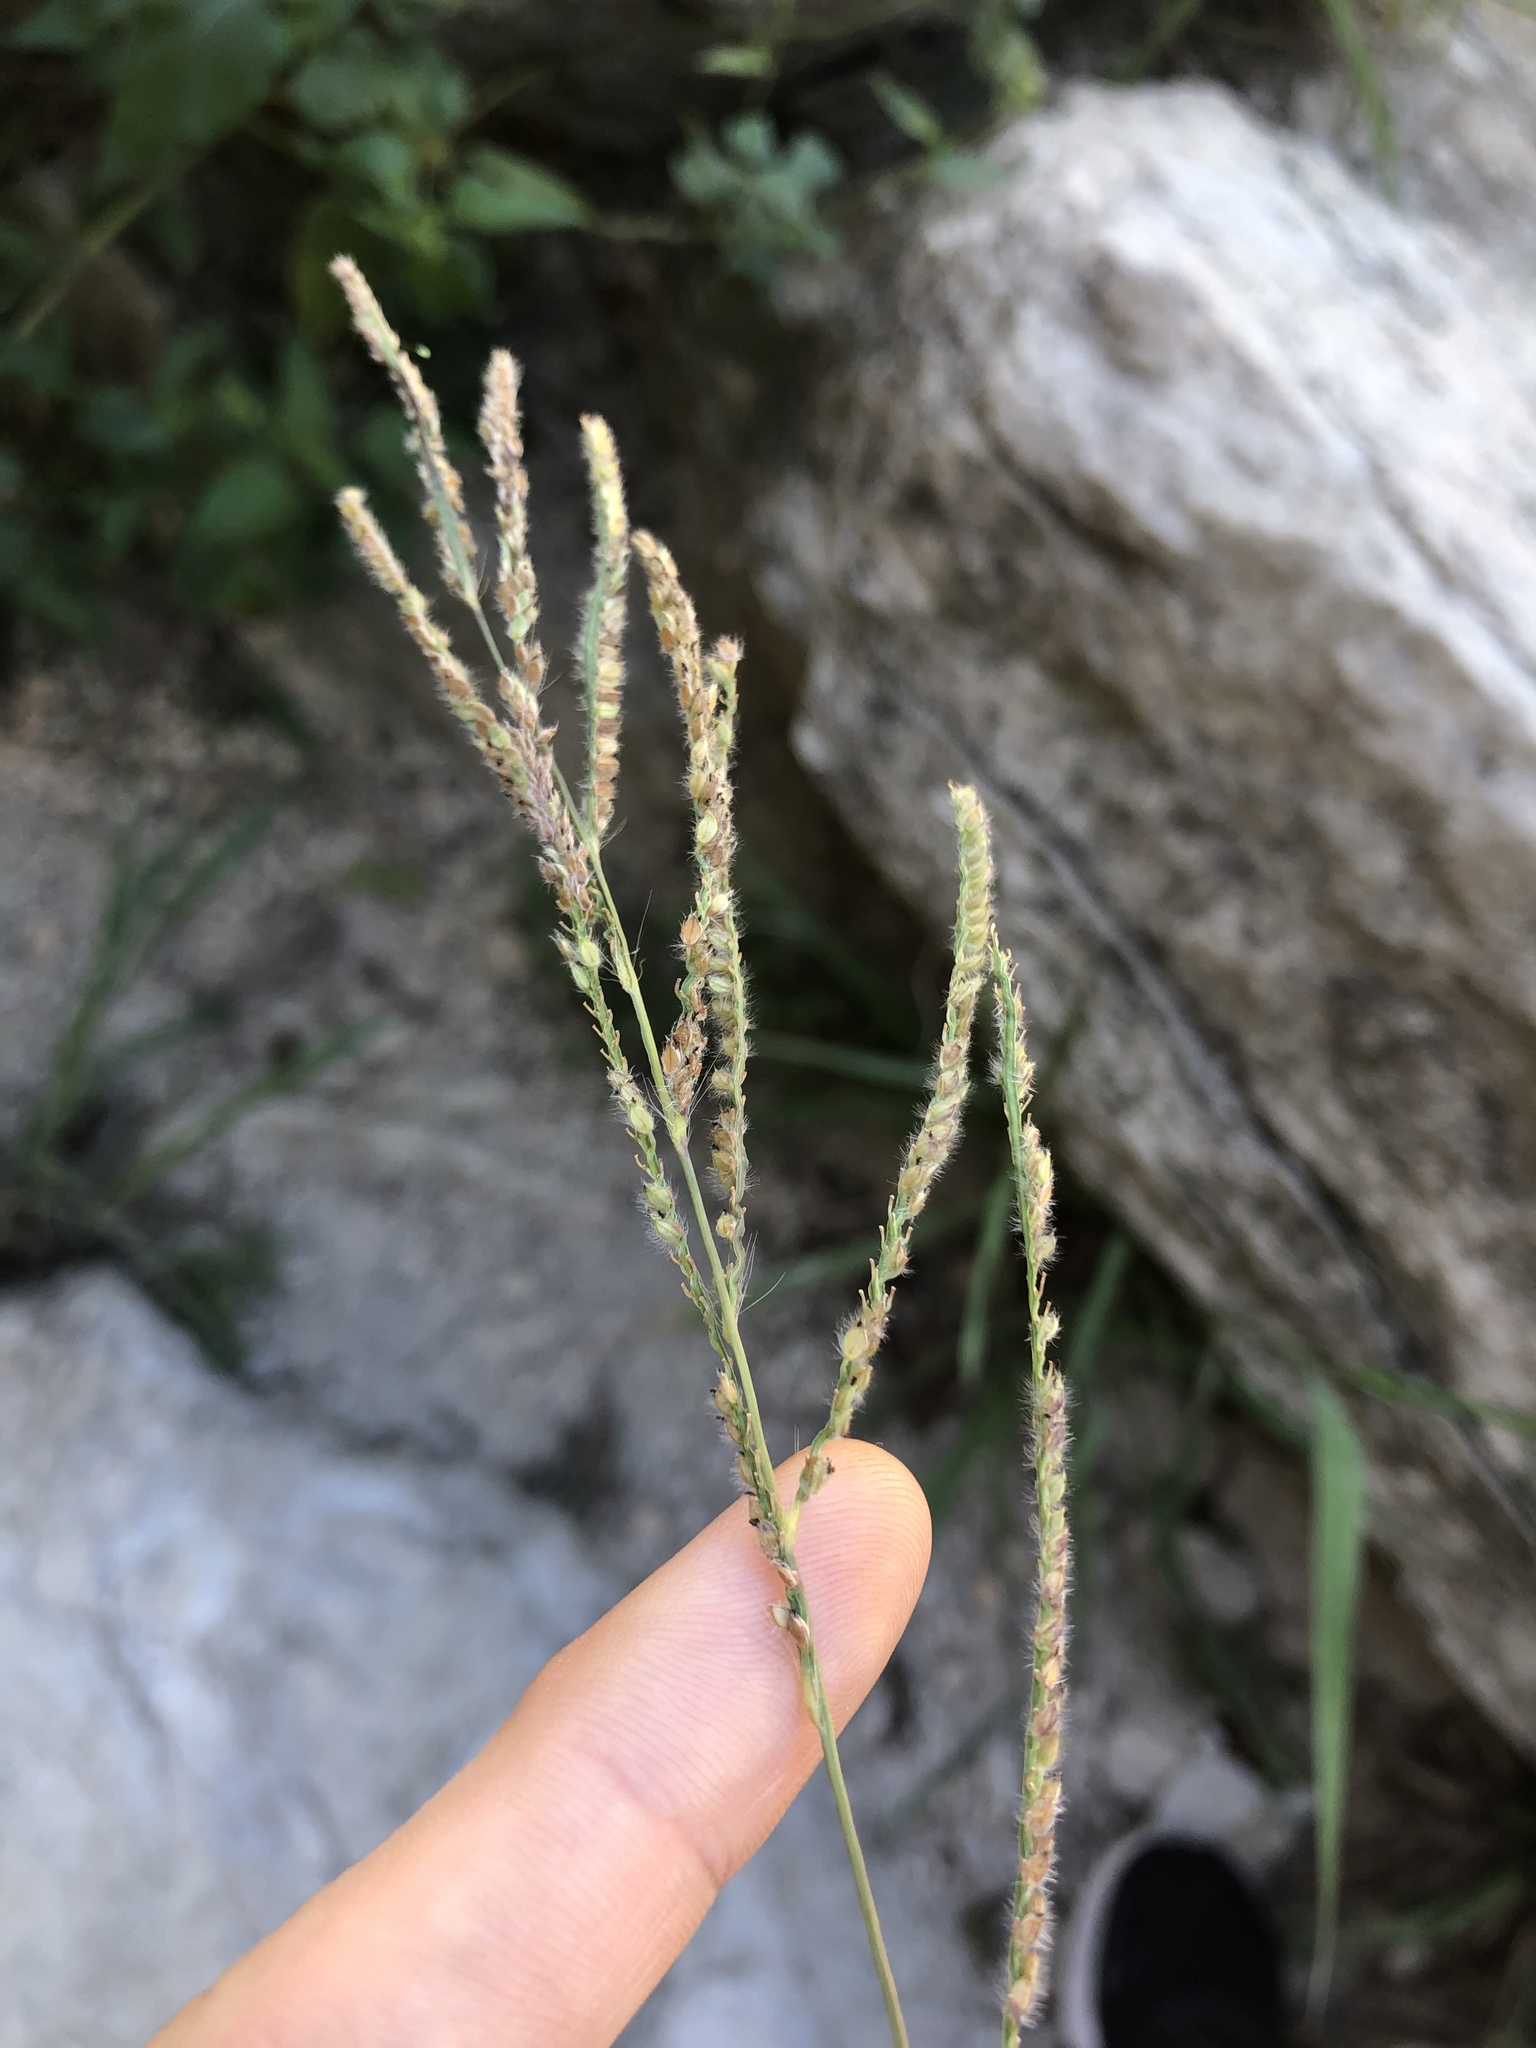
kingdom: Plantae
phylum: Tracheophyta
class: Liliopsida
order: Poales
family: Poaceae
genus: Paspalum
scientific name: Paspalum urvillei
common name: Vasey's grass
